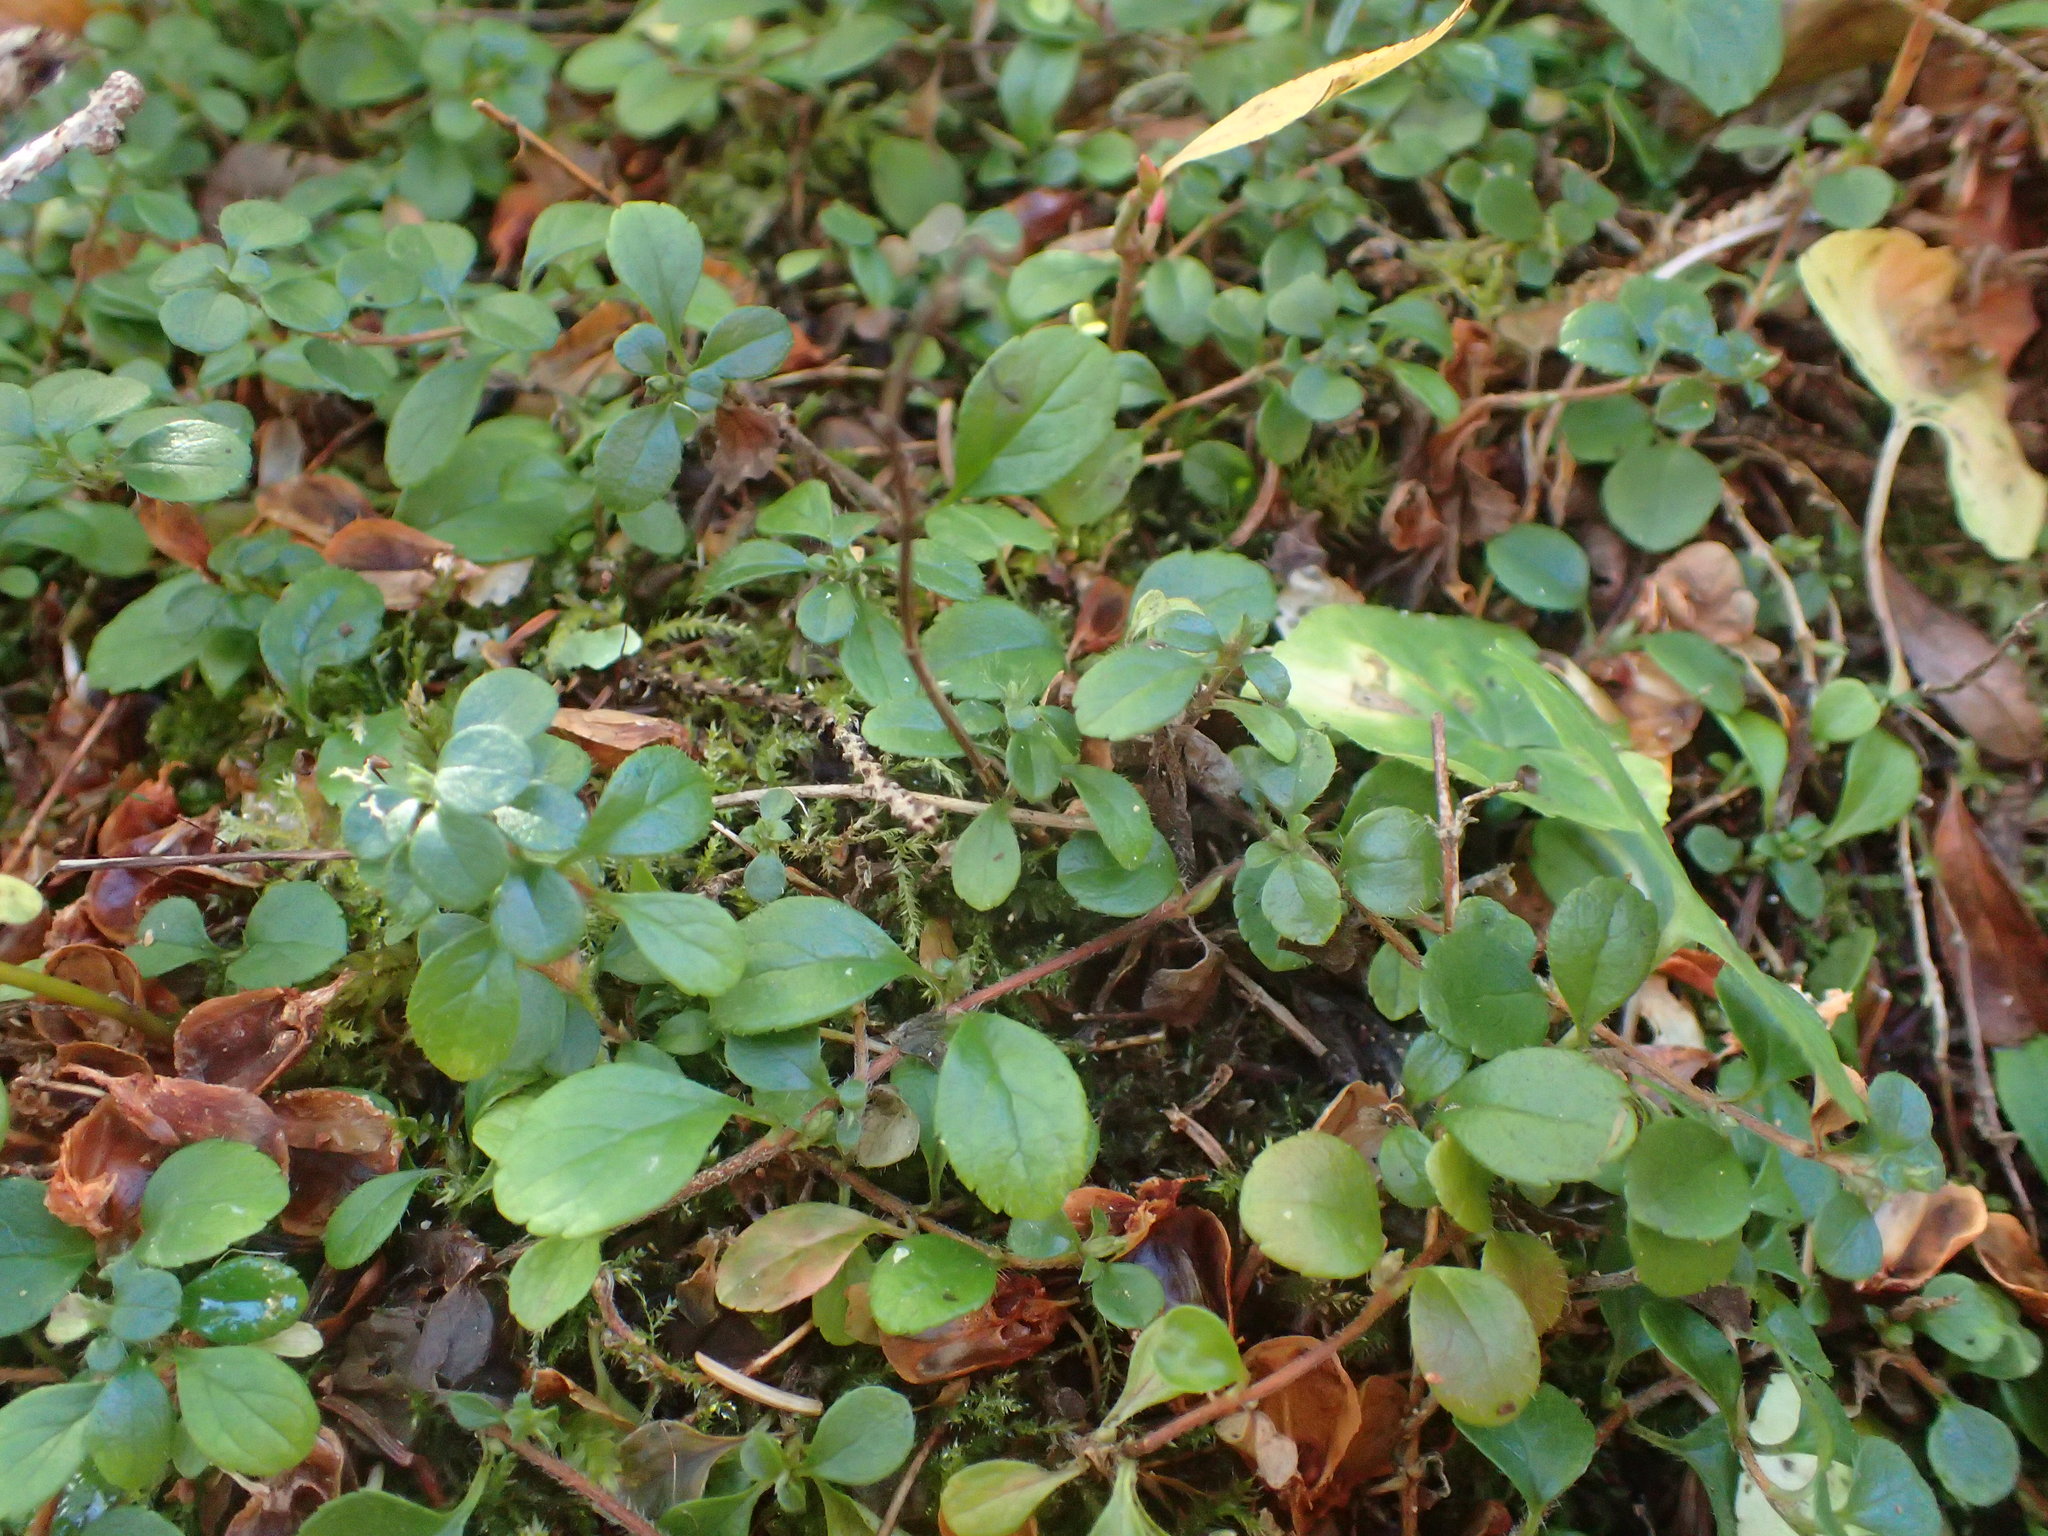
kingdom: Plantae
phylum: Tracheophyta
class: Magnoliopsida
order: Dipsacales
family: Caprifoliaceae
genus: Linnaea
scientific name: Linnaea borealis
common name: Twinflower
